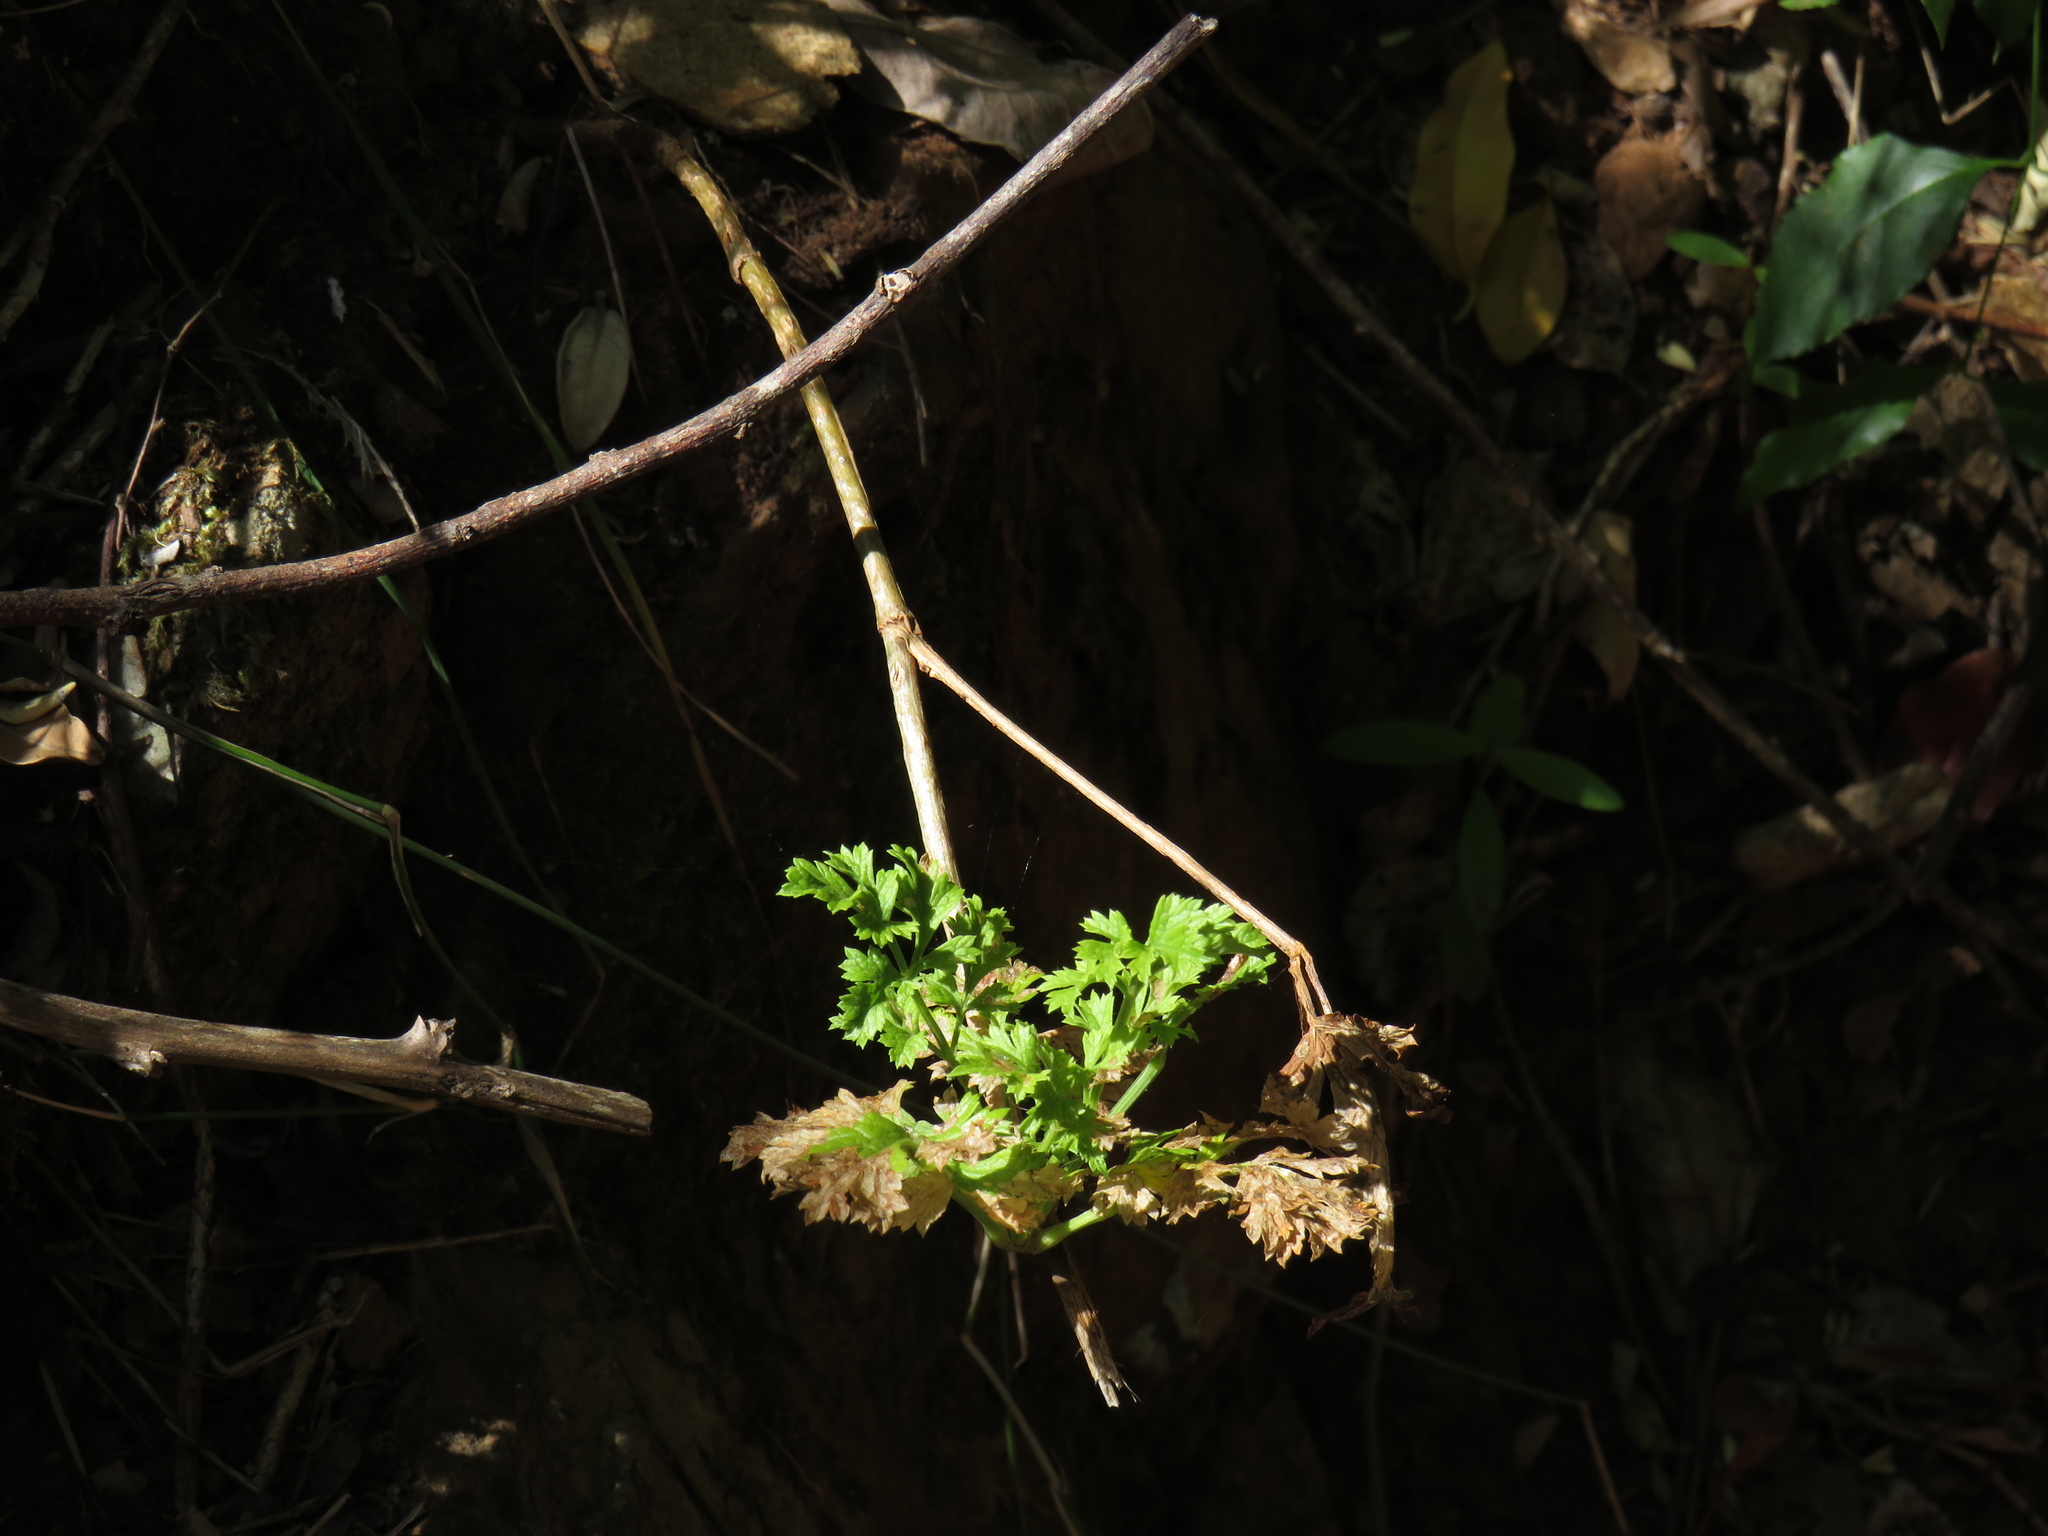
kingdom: Plantae
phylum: Tracheophyta
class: Magnoliopsida
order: Apiales
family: Apiaceae
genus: Glia
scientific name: Glia prolifera
